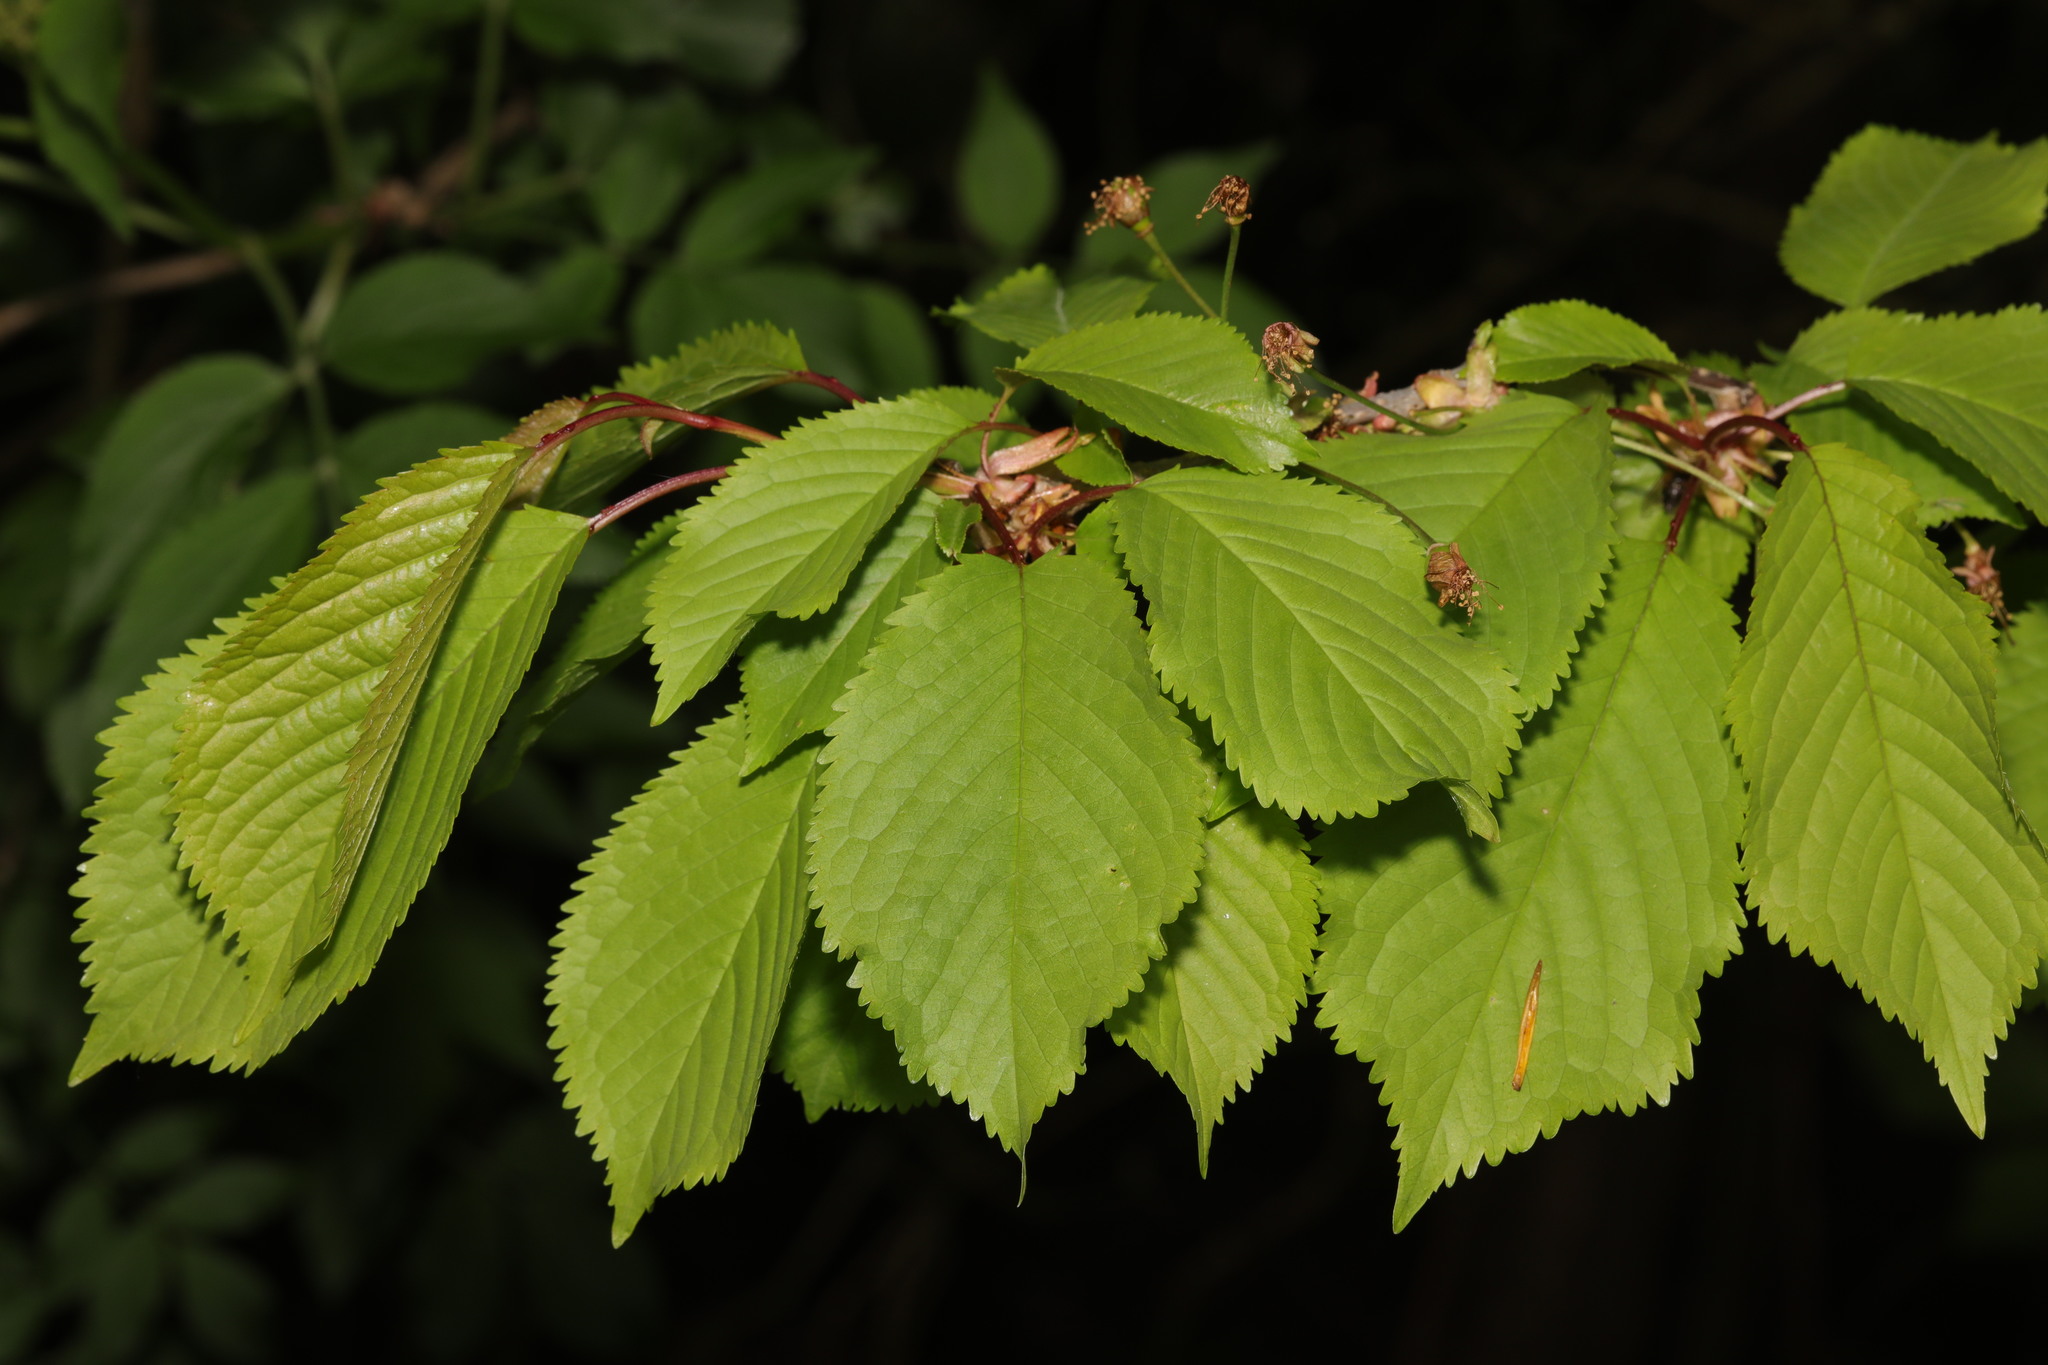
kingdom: Plantae
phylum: Tracheophyta
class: Magnoliopsida
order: Rosales
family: Rosaceae
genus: Prunus
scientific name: Prunus avium
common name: Sweet cherry
